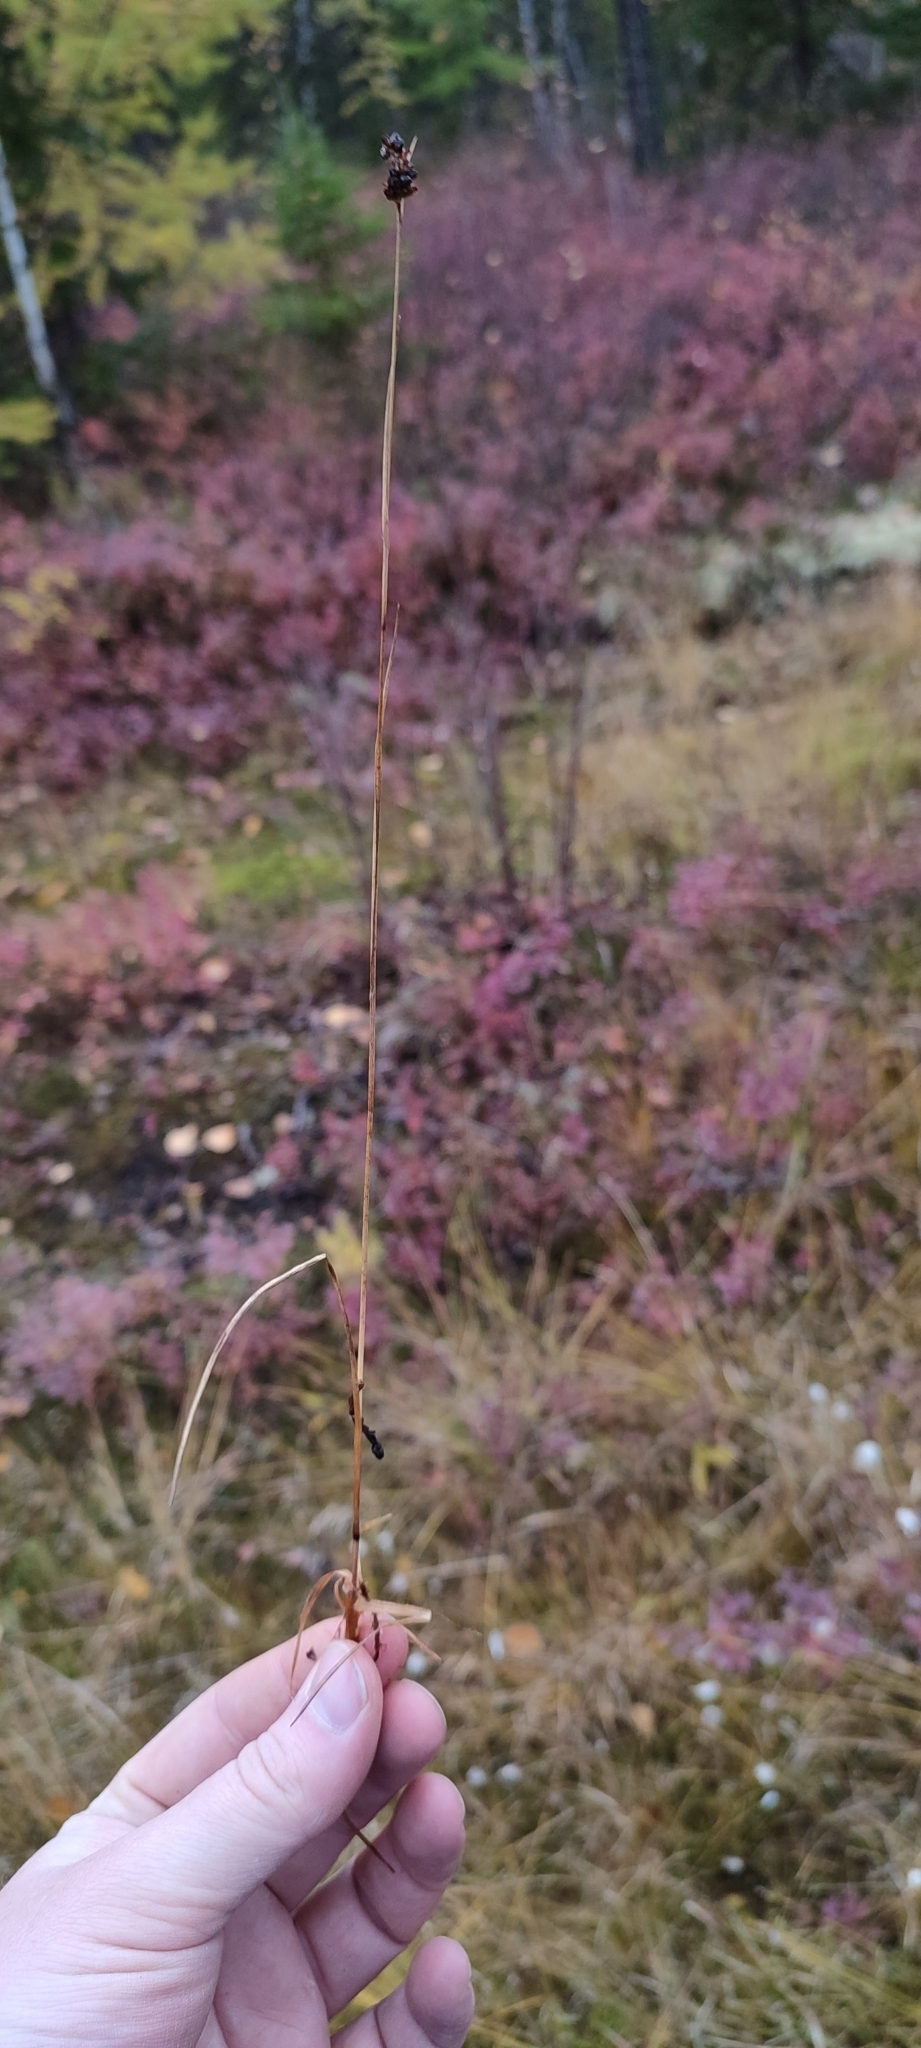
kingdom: Plantae
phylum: Tracheophyta
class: Liliopsida
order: Poales
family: Juncaceae
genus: Luzula
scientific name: Luzula multiflora
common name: Heath wood-rush
